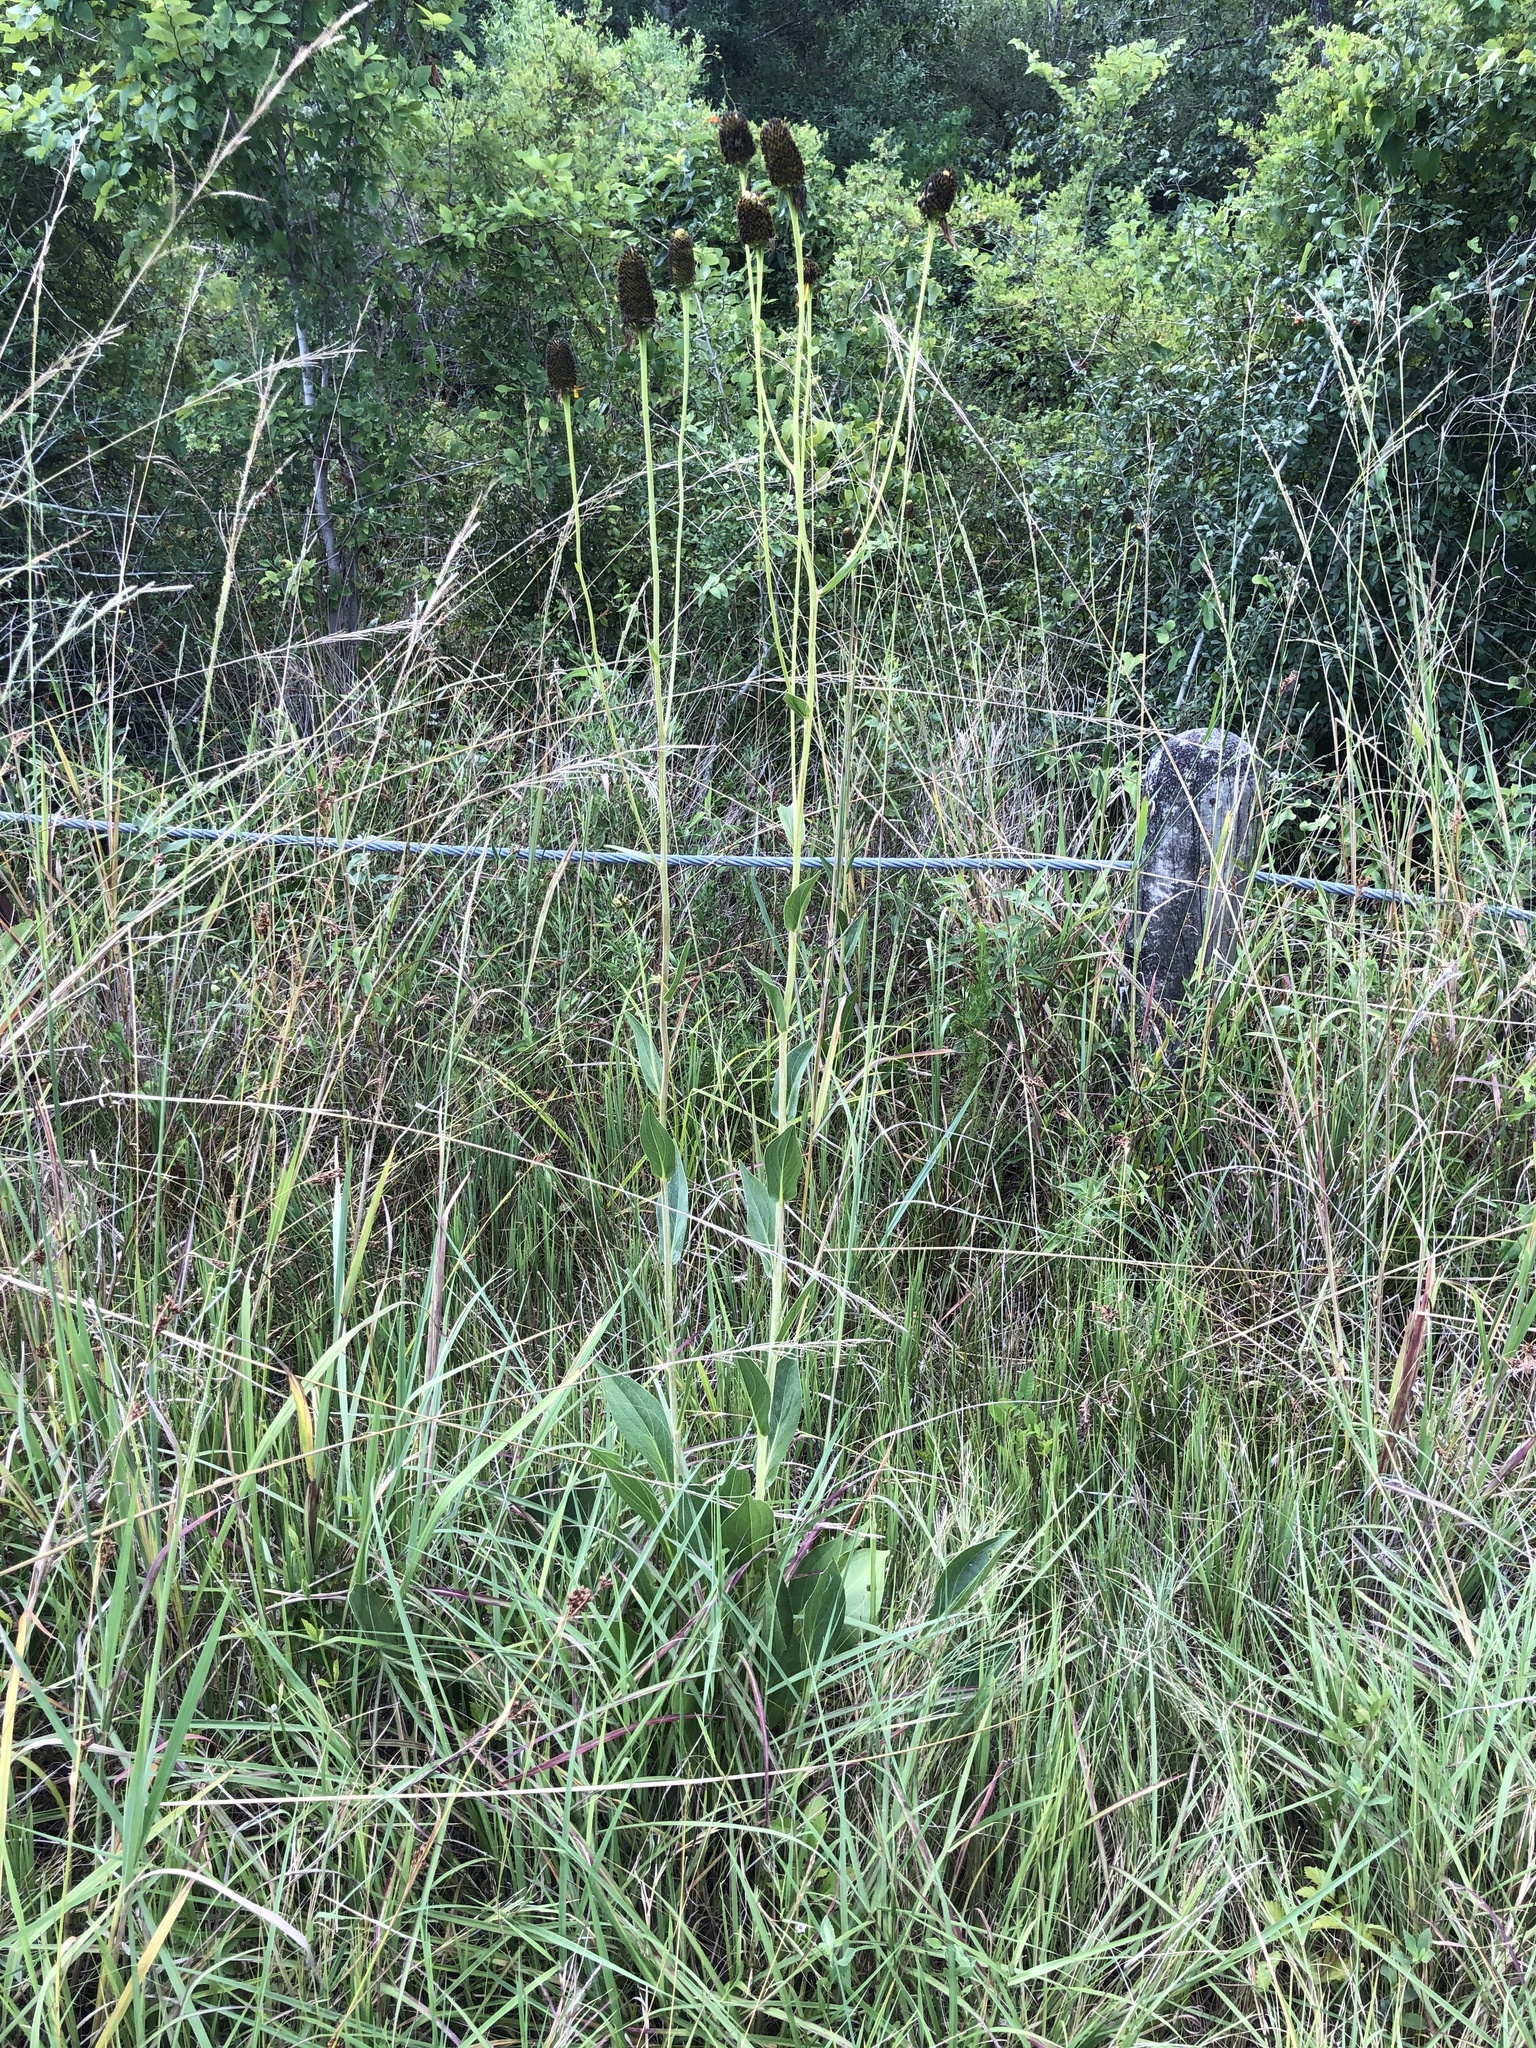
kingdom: Plantae
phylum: Tracheophyta
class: Magnoliopsida
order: Asterales
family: Asteraceae
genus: Rudbeckia
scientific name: Rudbeckia texana
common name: Texas coneflower
